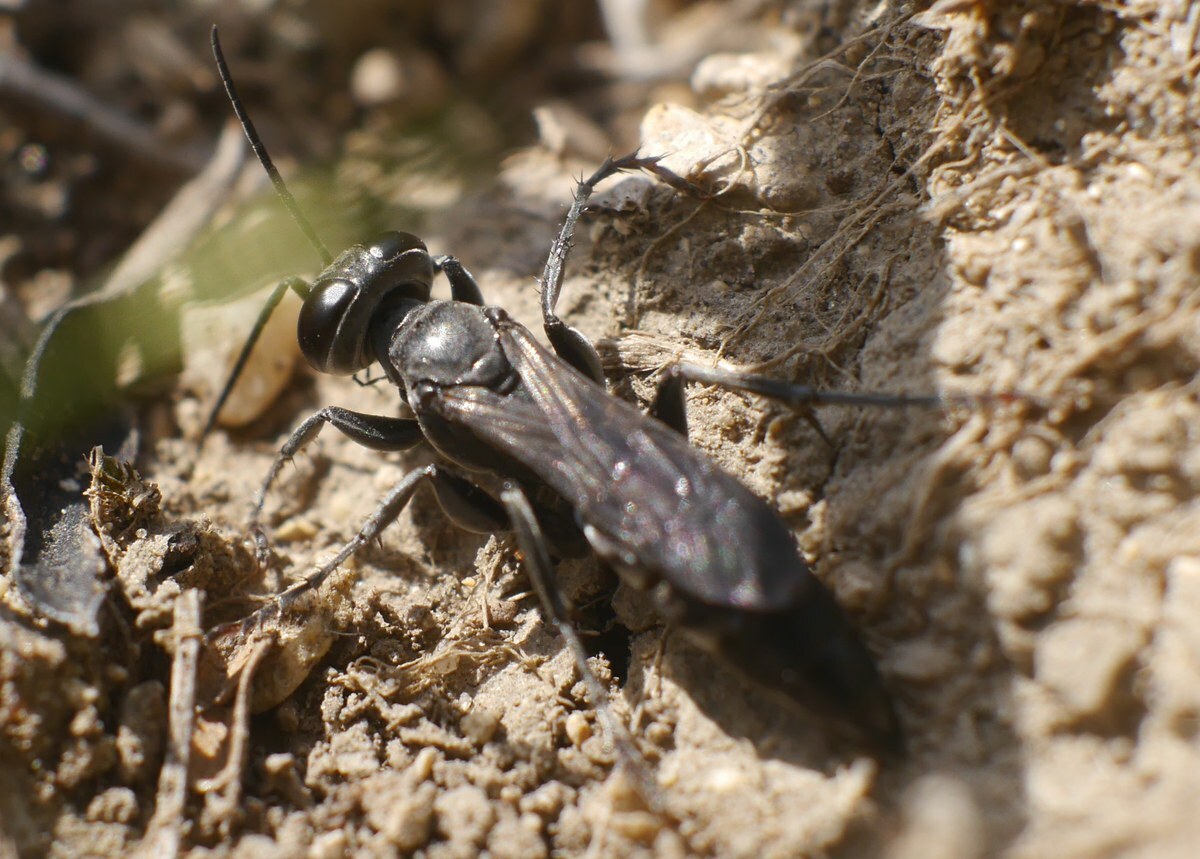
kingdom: Animalia
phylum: Arthropoda
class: Insecta
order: Hymenoptera
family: Crabronidae
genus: Liris
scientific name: Liris niger
